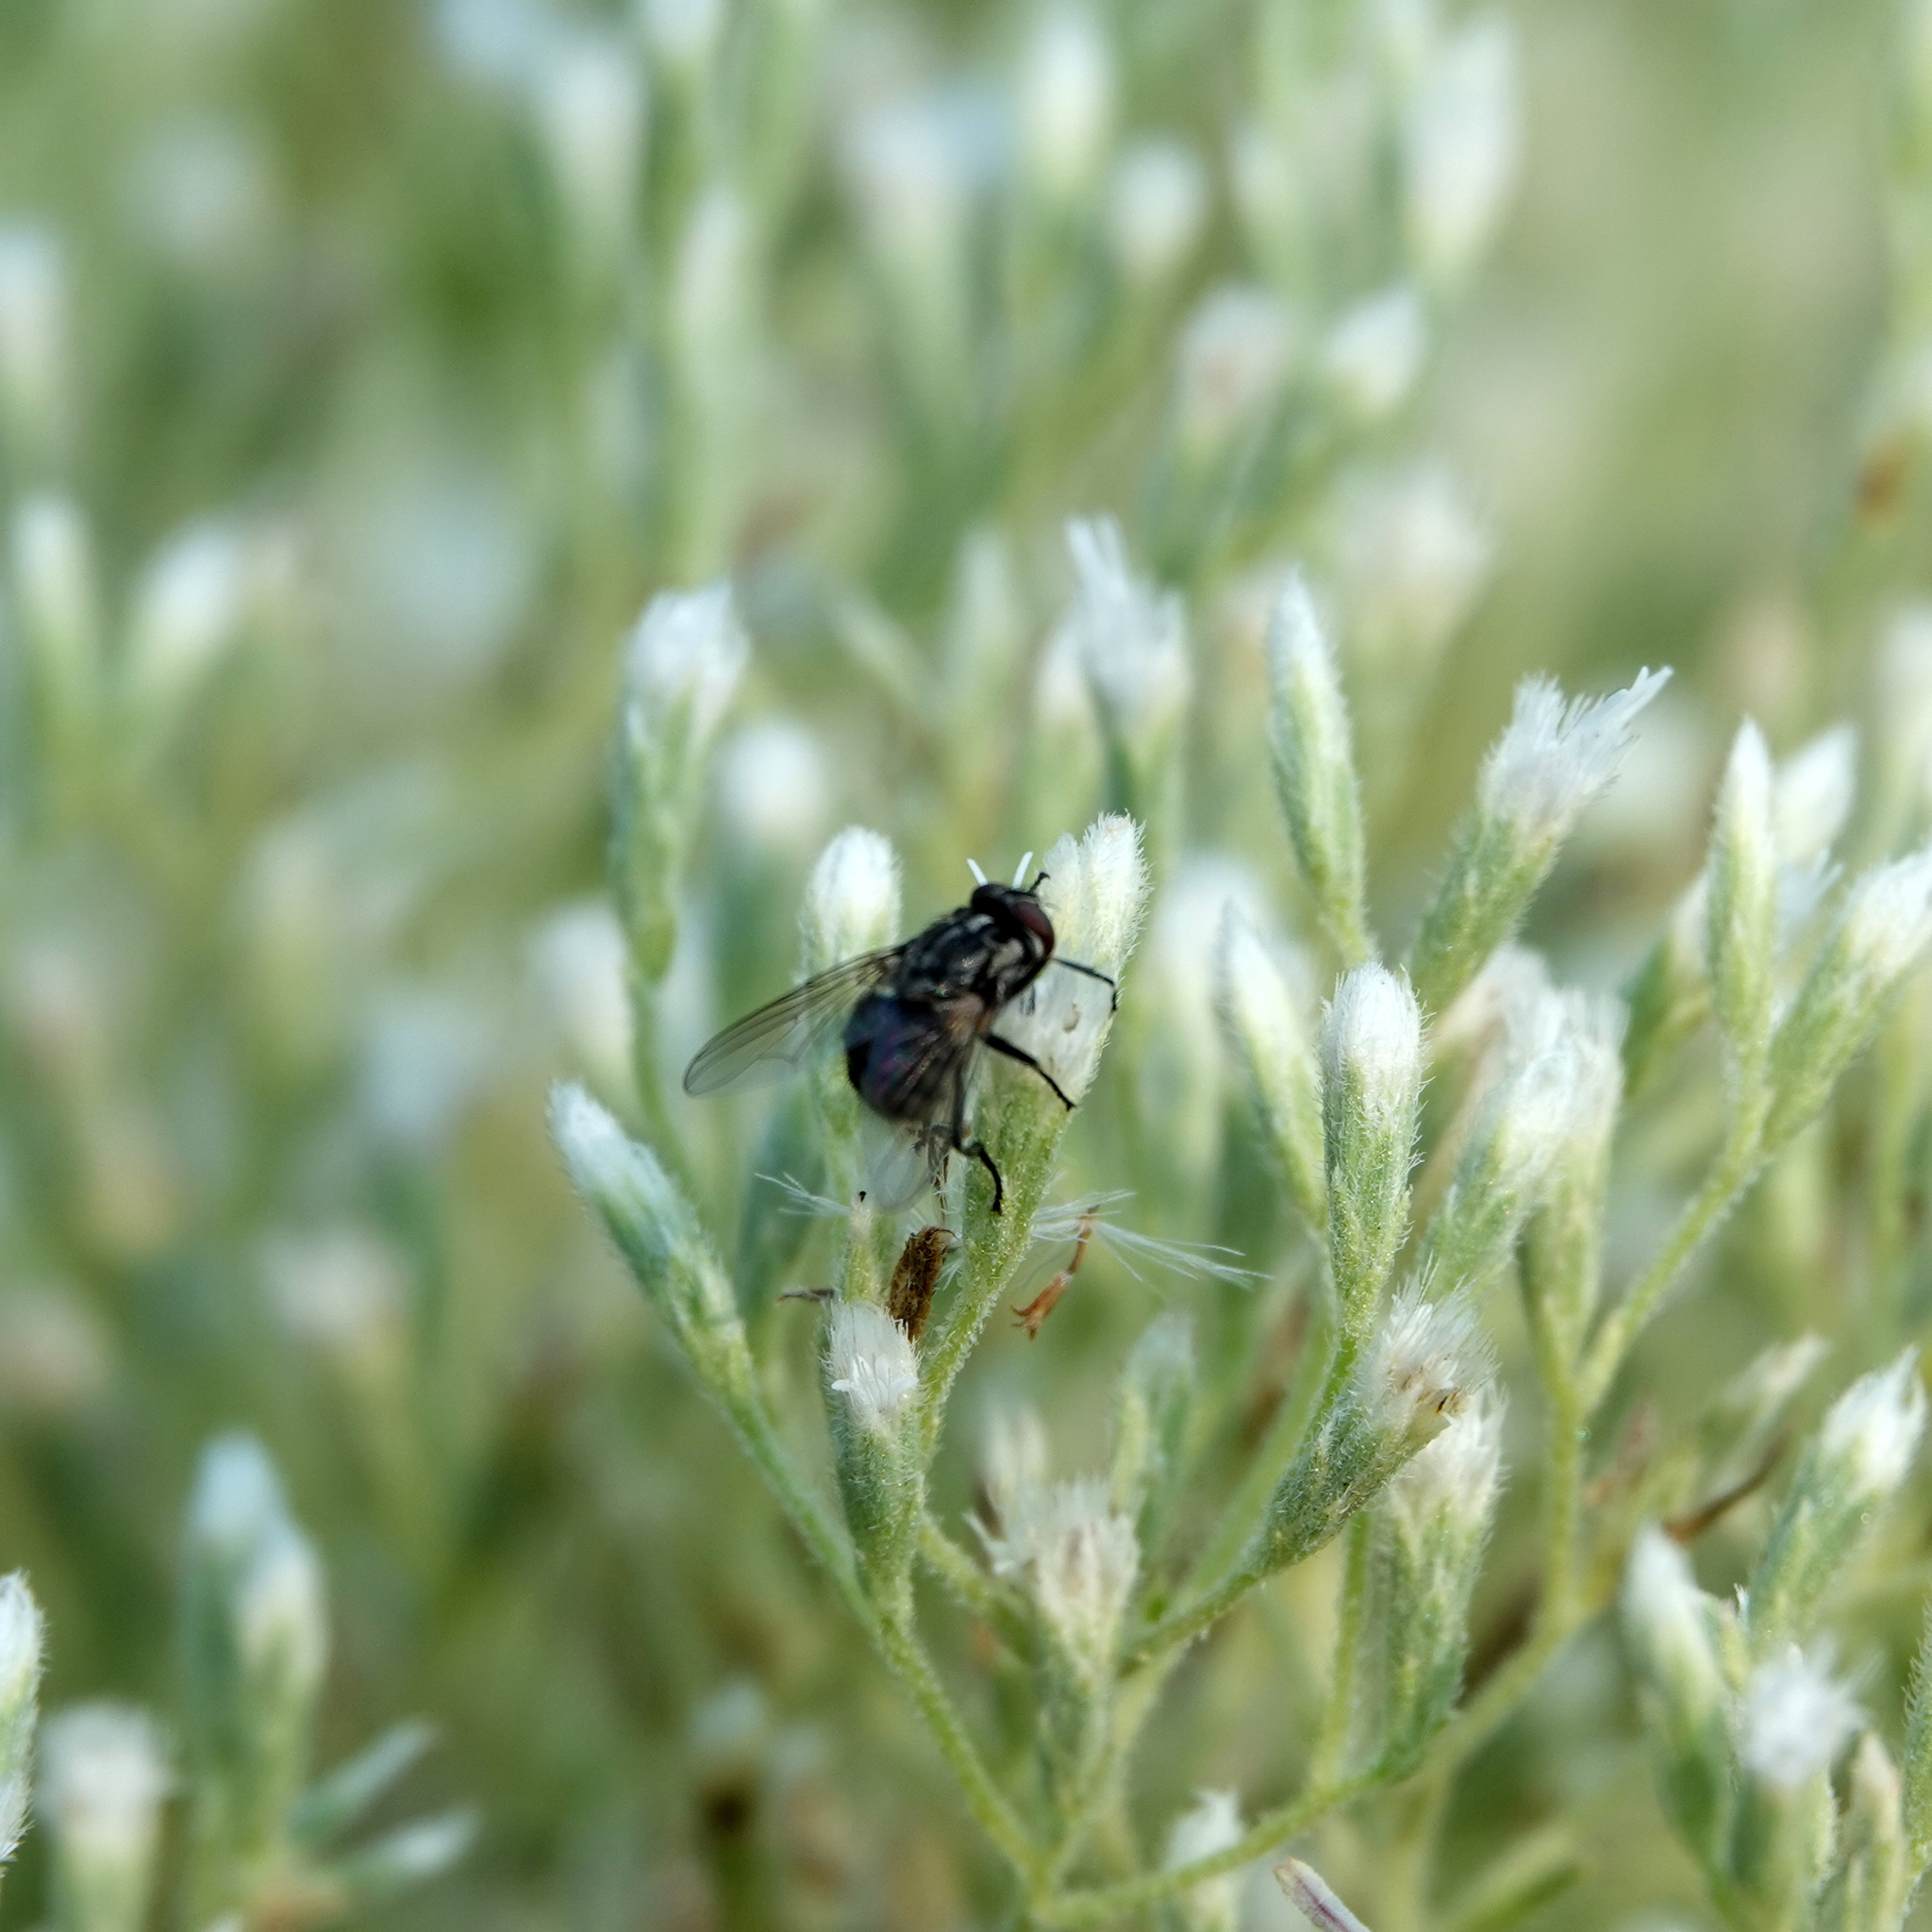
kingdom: Animalia
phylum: Arthropoda
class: Insecta
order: Diptera
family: Muscidae
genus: Stomoxys
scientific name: Stomoxys calcitrans
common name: Stable fly
